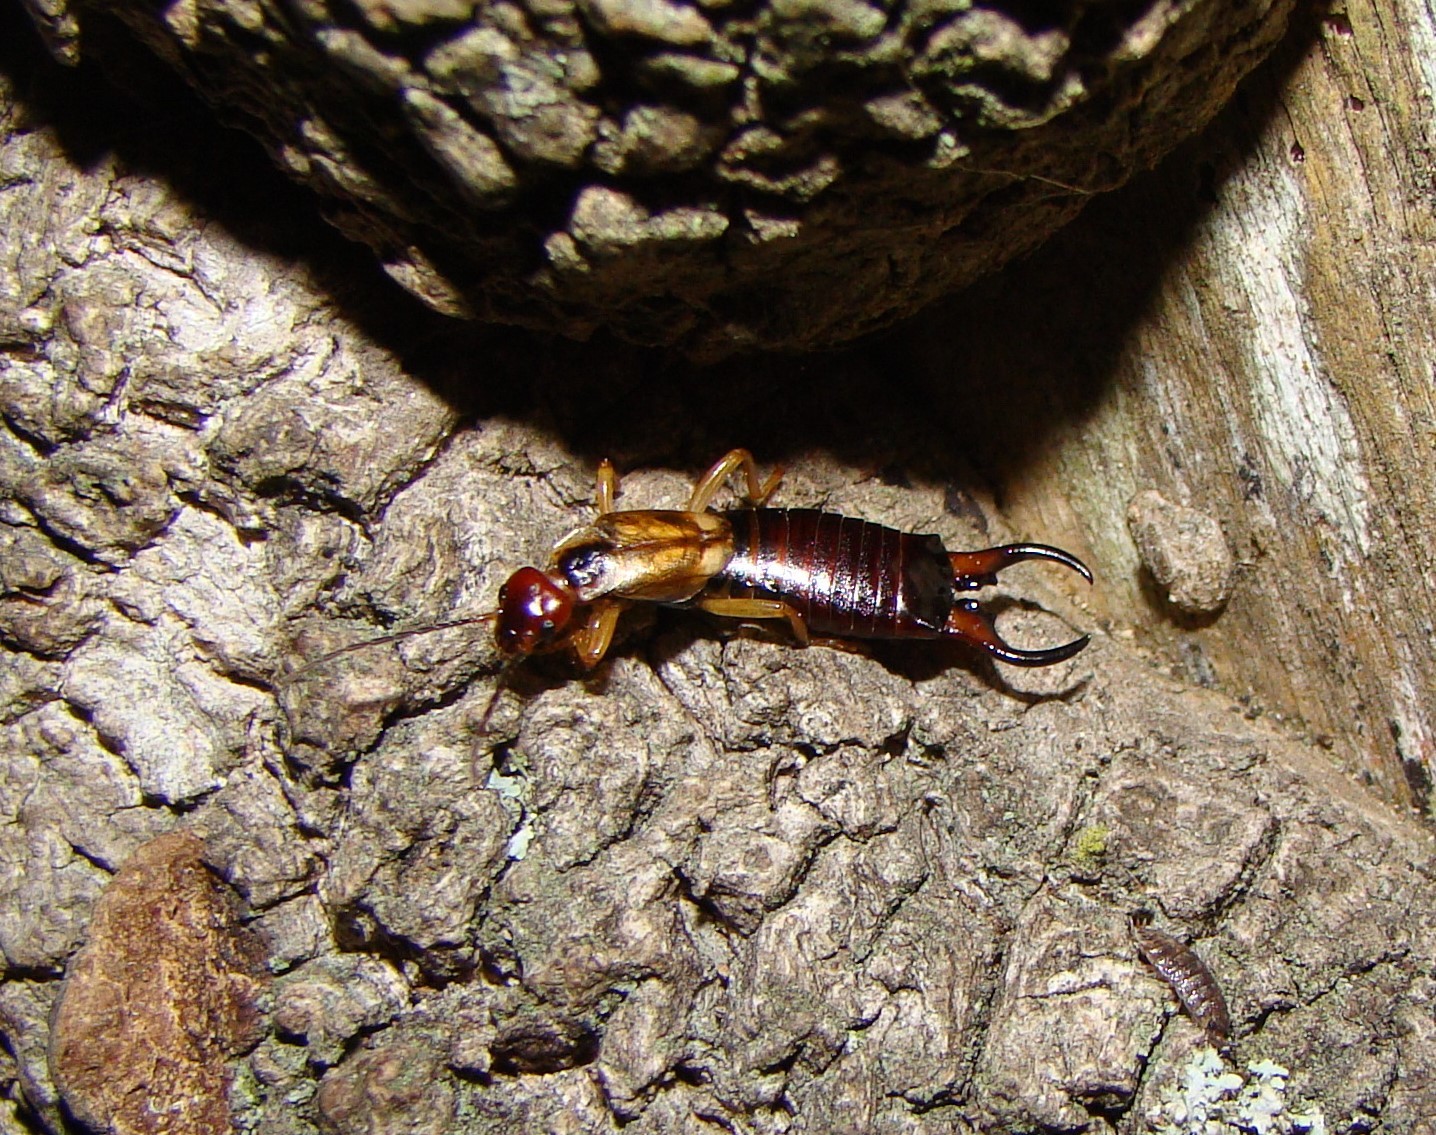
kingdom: Animalia
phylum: Arthropoda
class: Insecta
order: Dermaptera
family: Forficulidae
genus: Forficula
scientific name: Forficula
